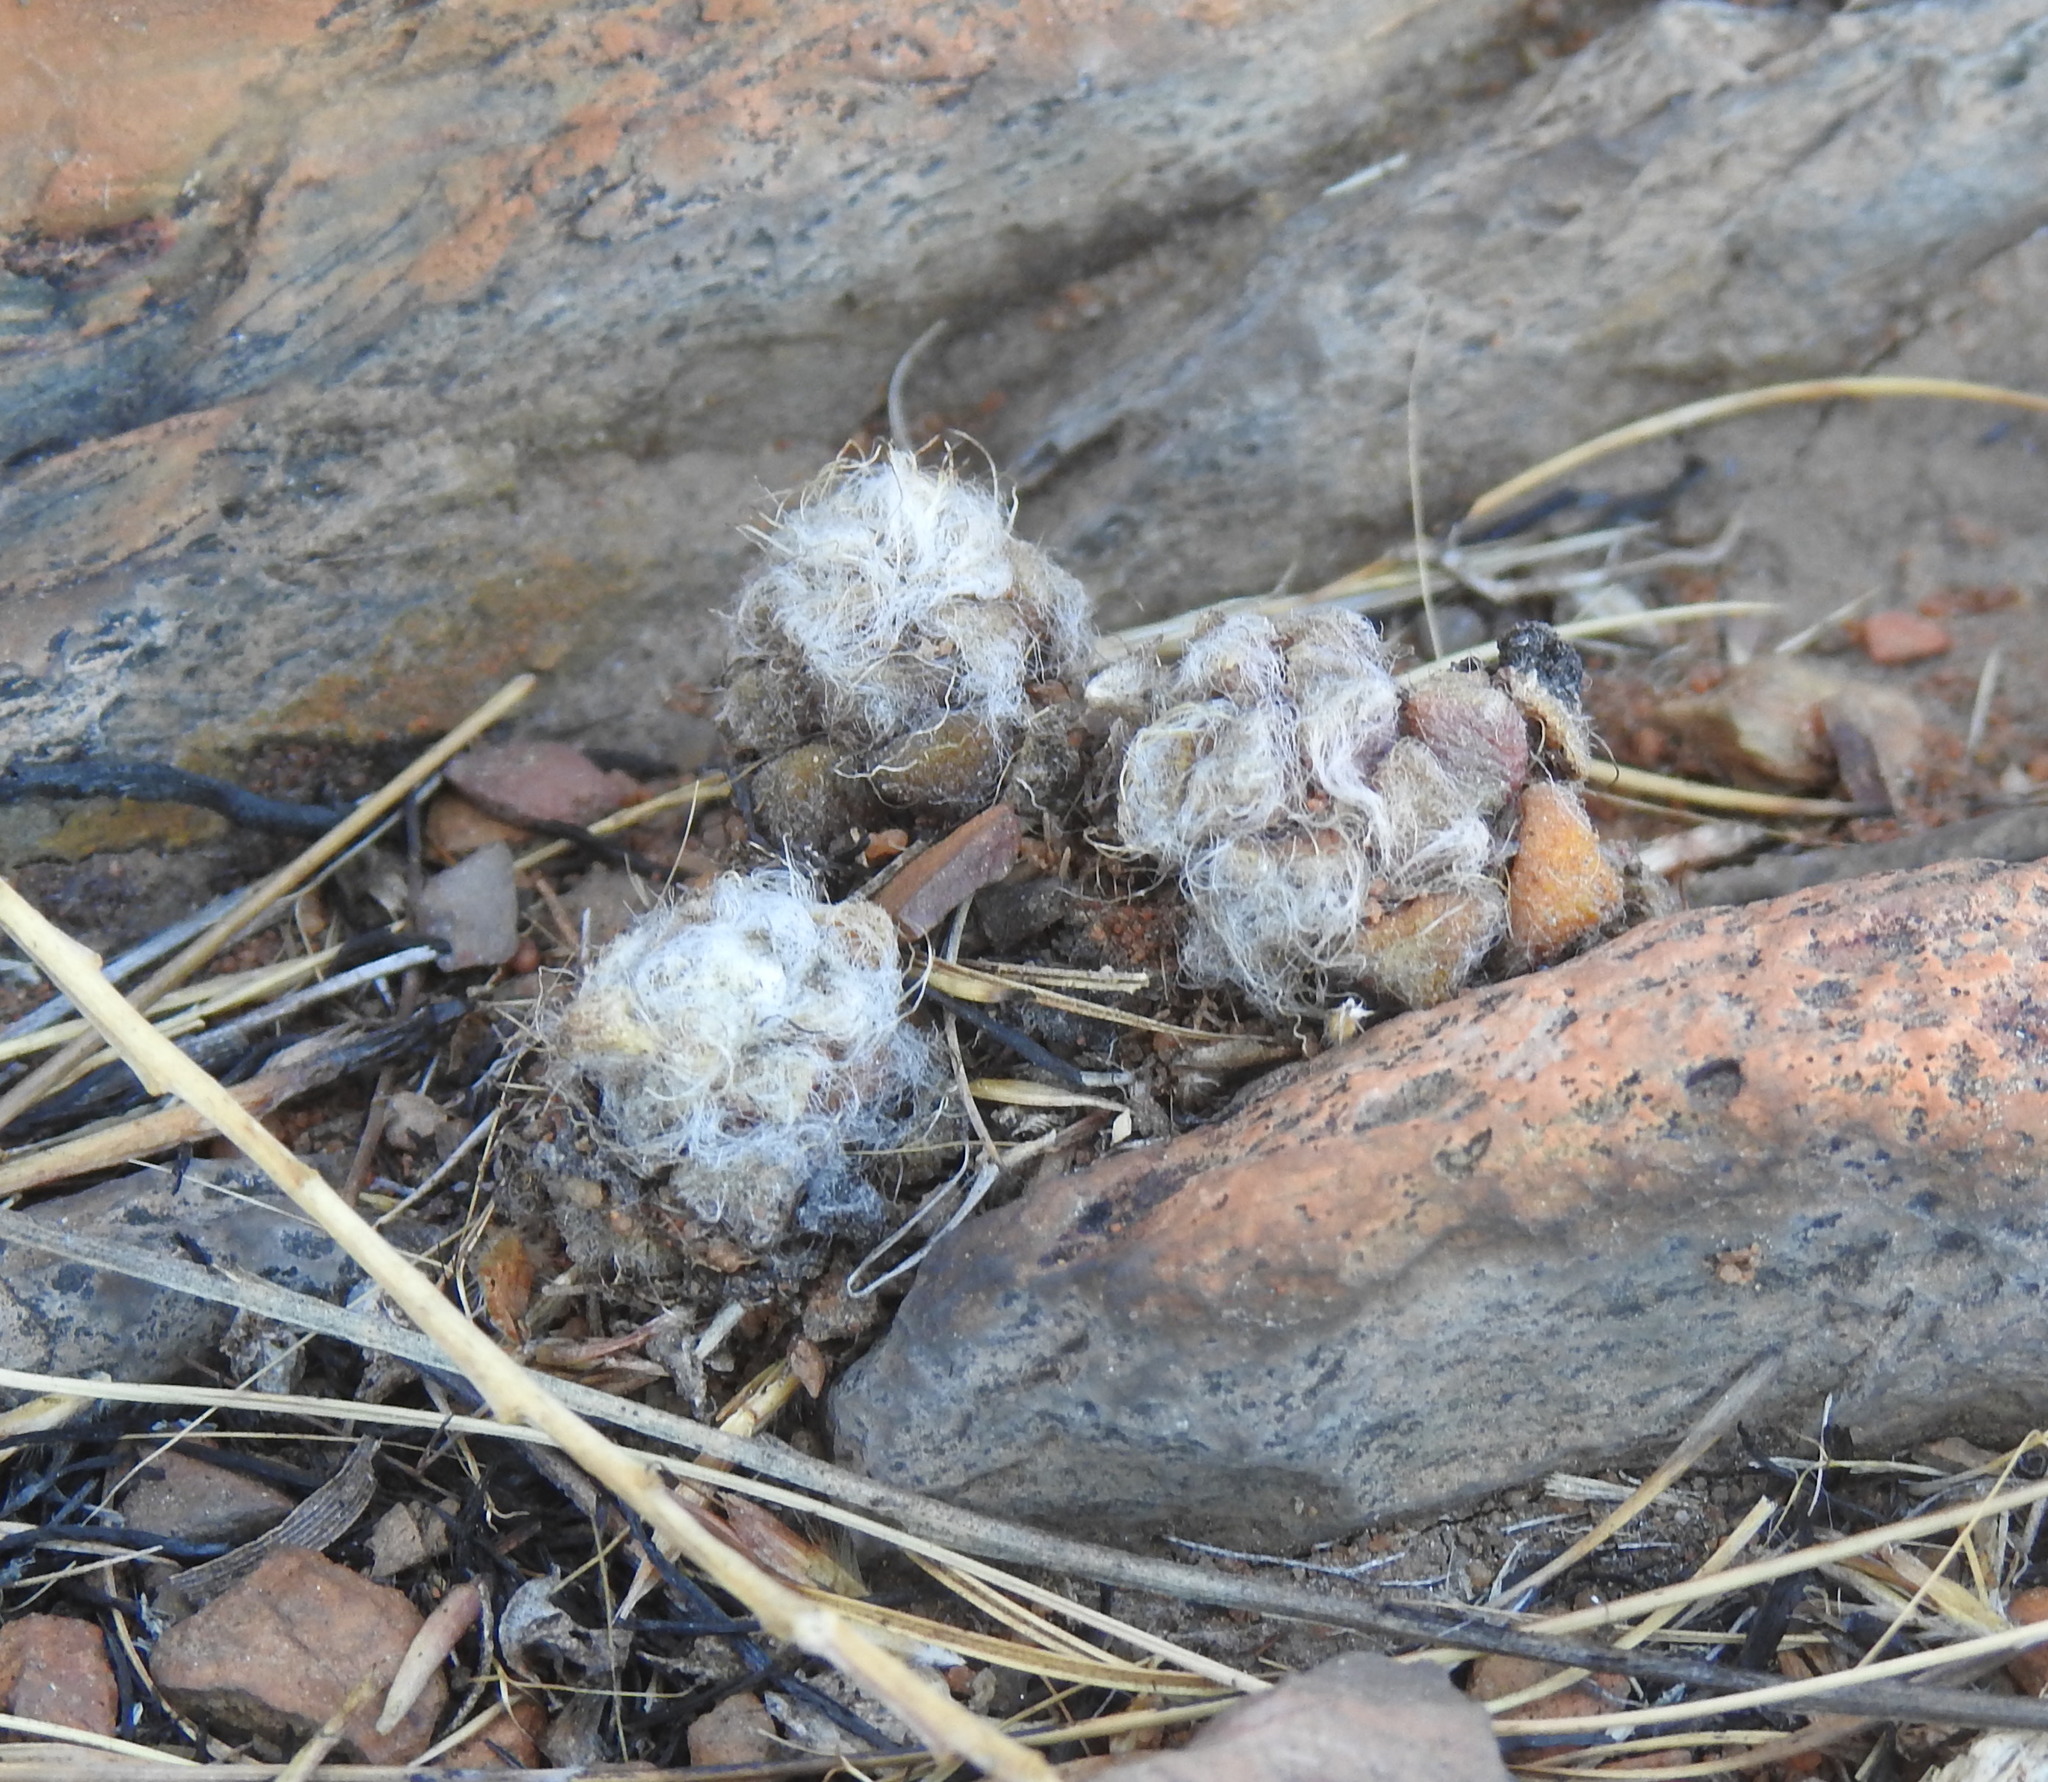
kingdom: Plantae
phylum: Tracheophyta
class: Magnoliopsida
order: Caryophyllales
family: Anacampserotaceae
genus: Anacampseros
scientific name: Anacampseros subnuda
